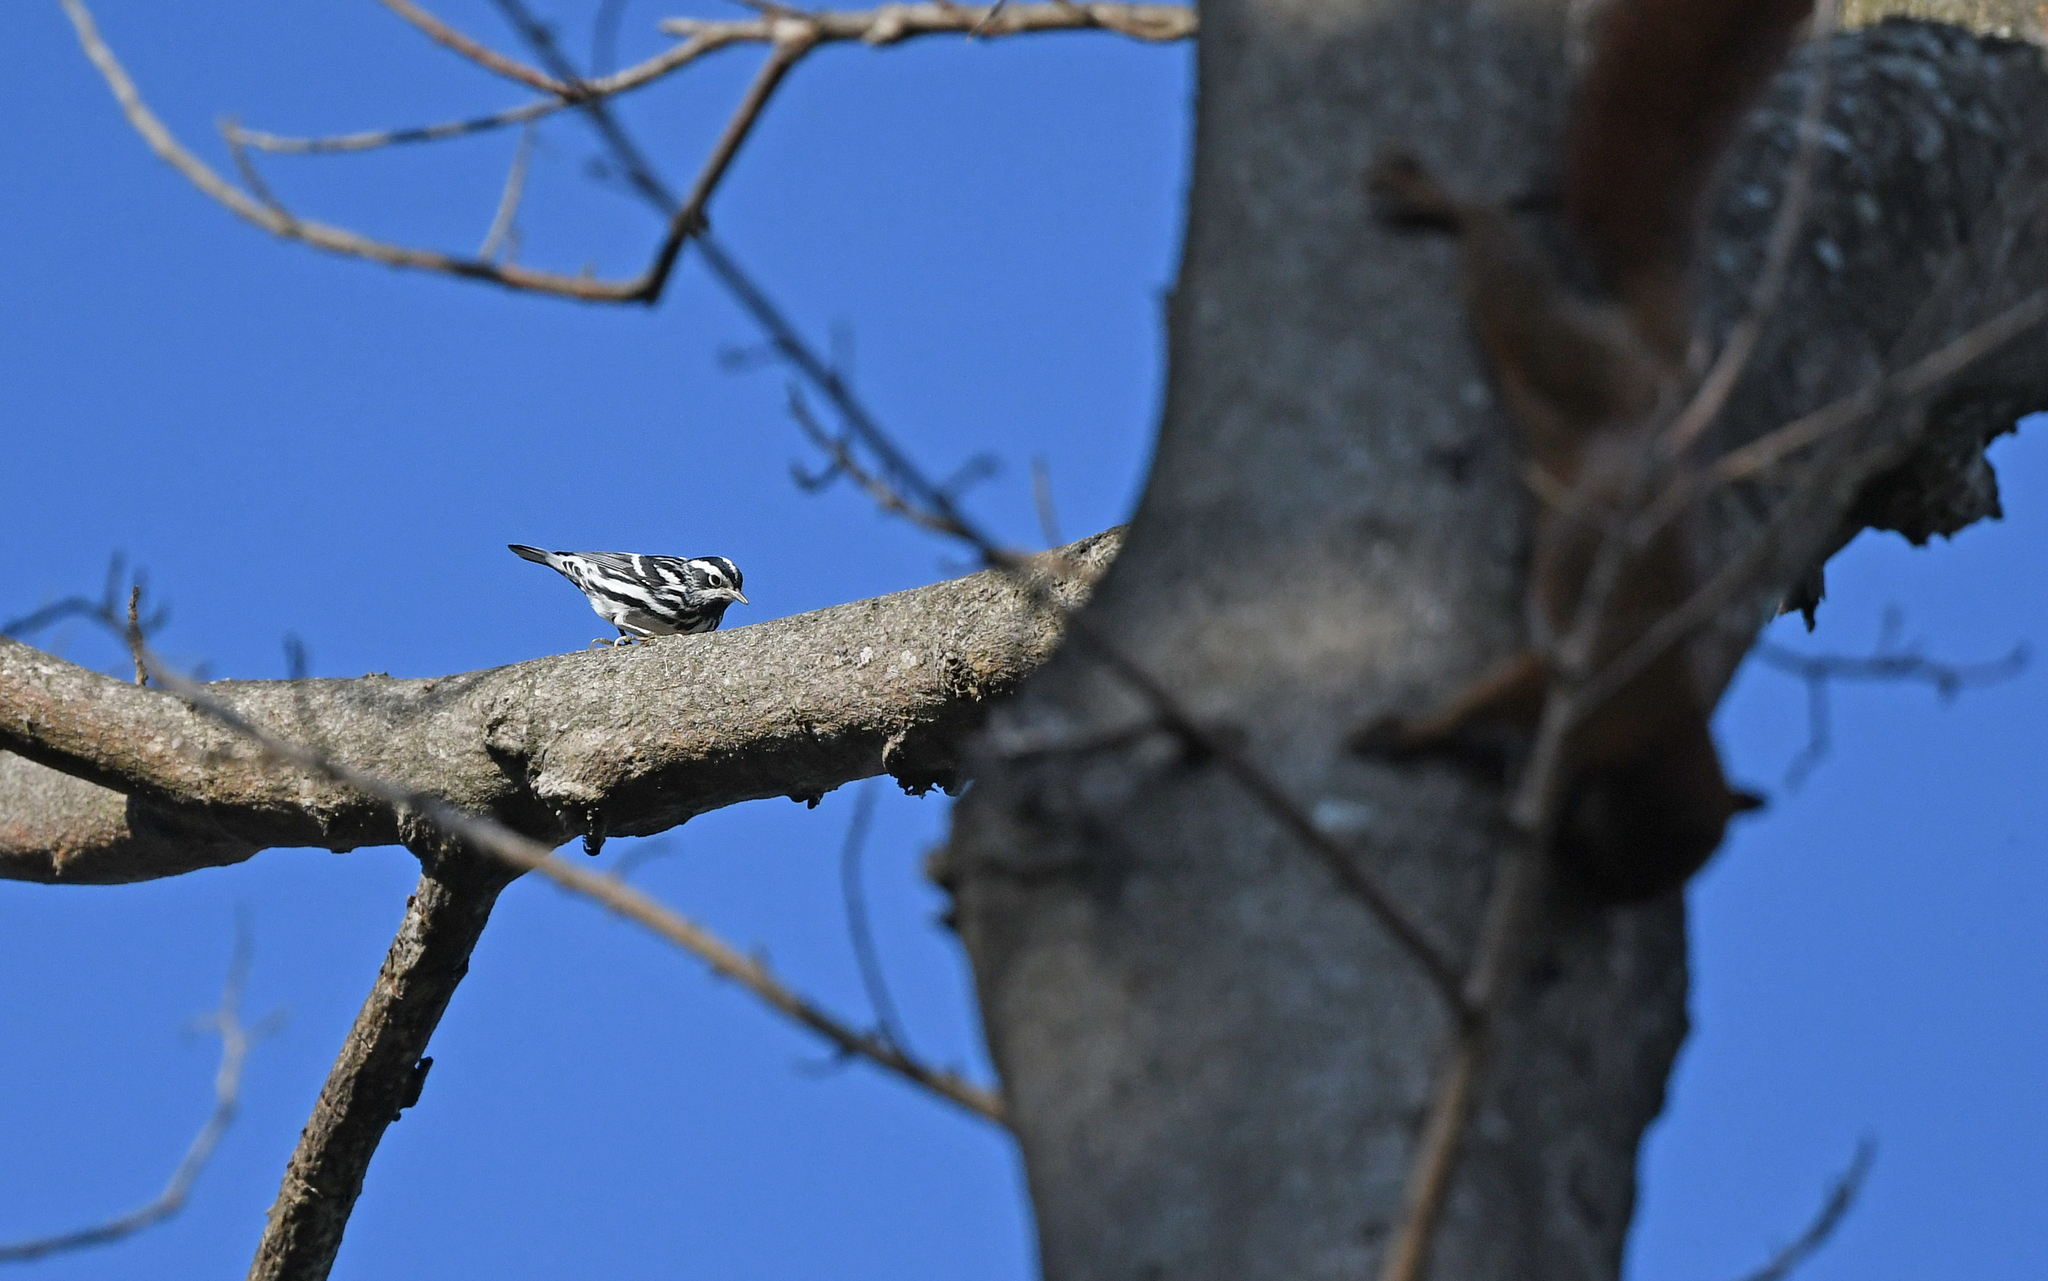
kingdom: Animalia
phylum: Chordata
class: Aves
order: Passeriformes
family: Parulidae
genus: Mniotilta
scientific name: Mniotilta varia
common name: Black-and-white warbler
